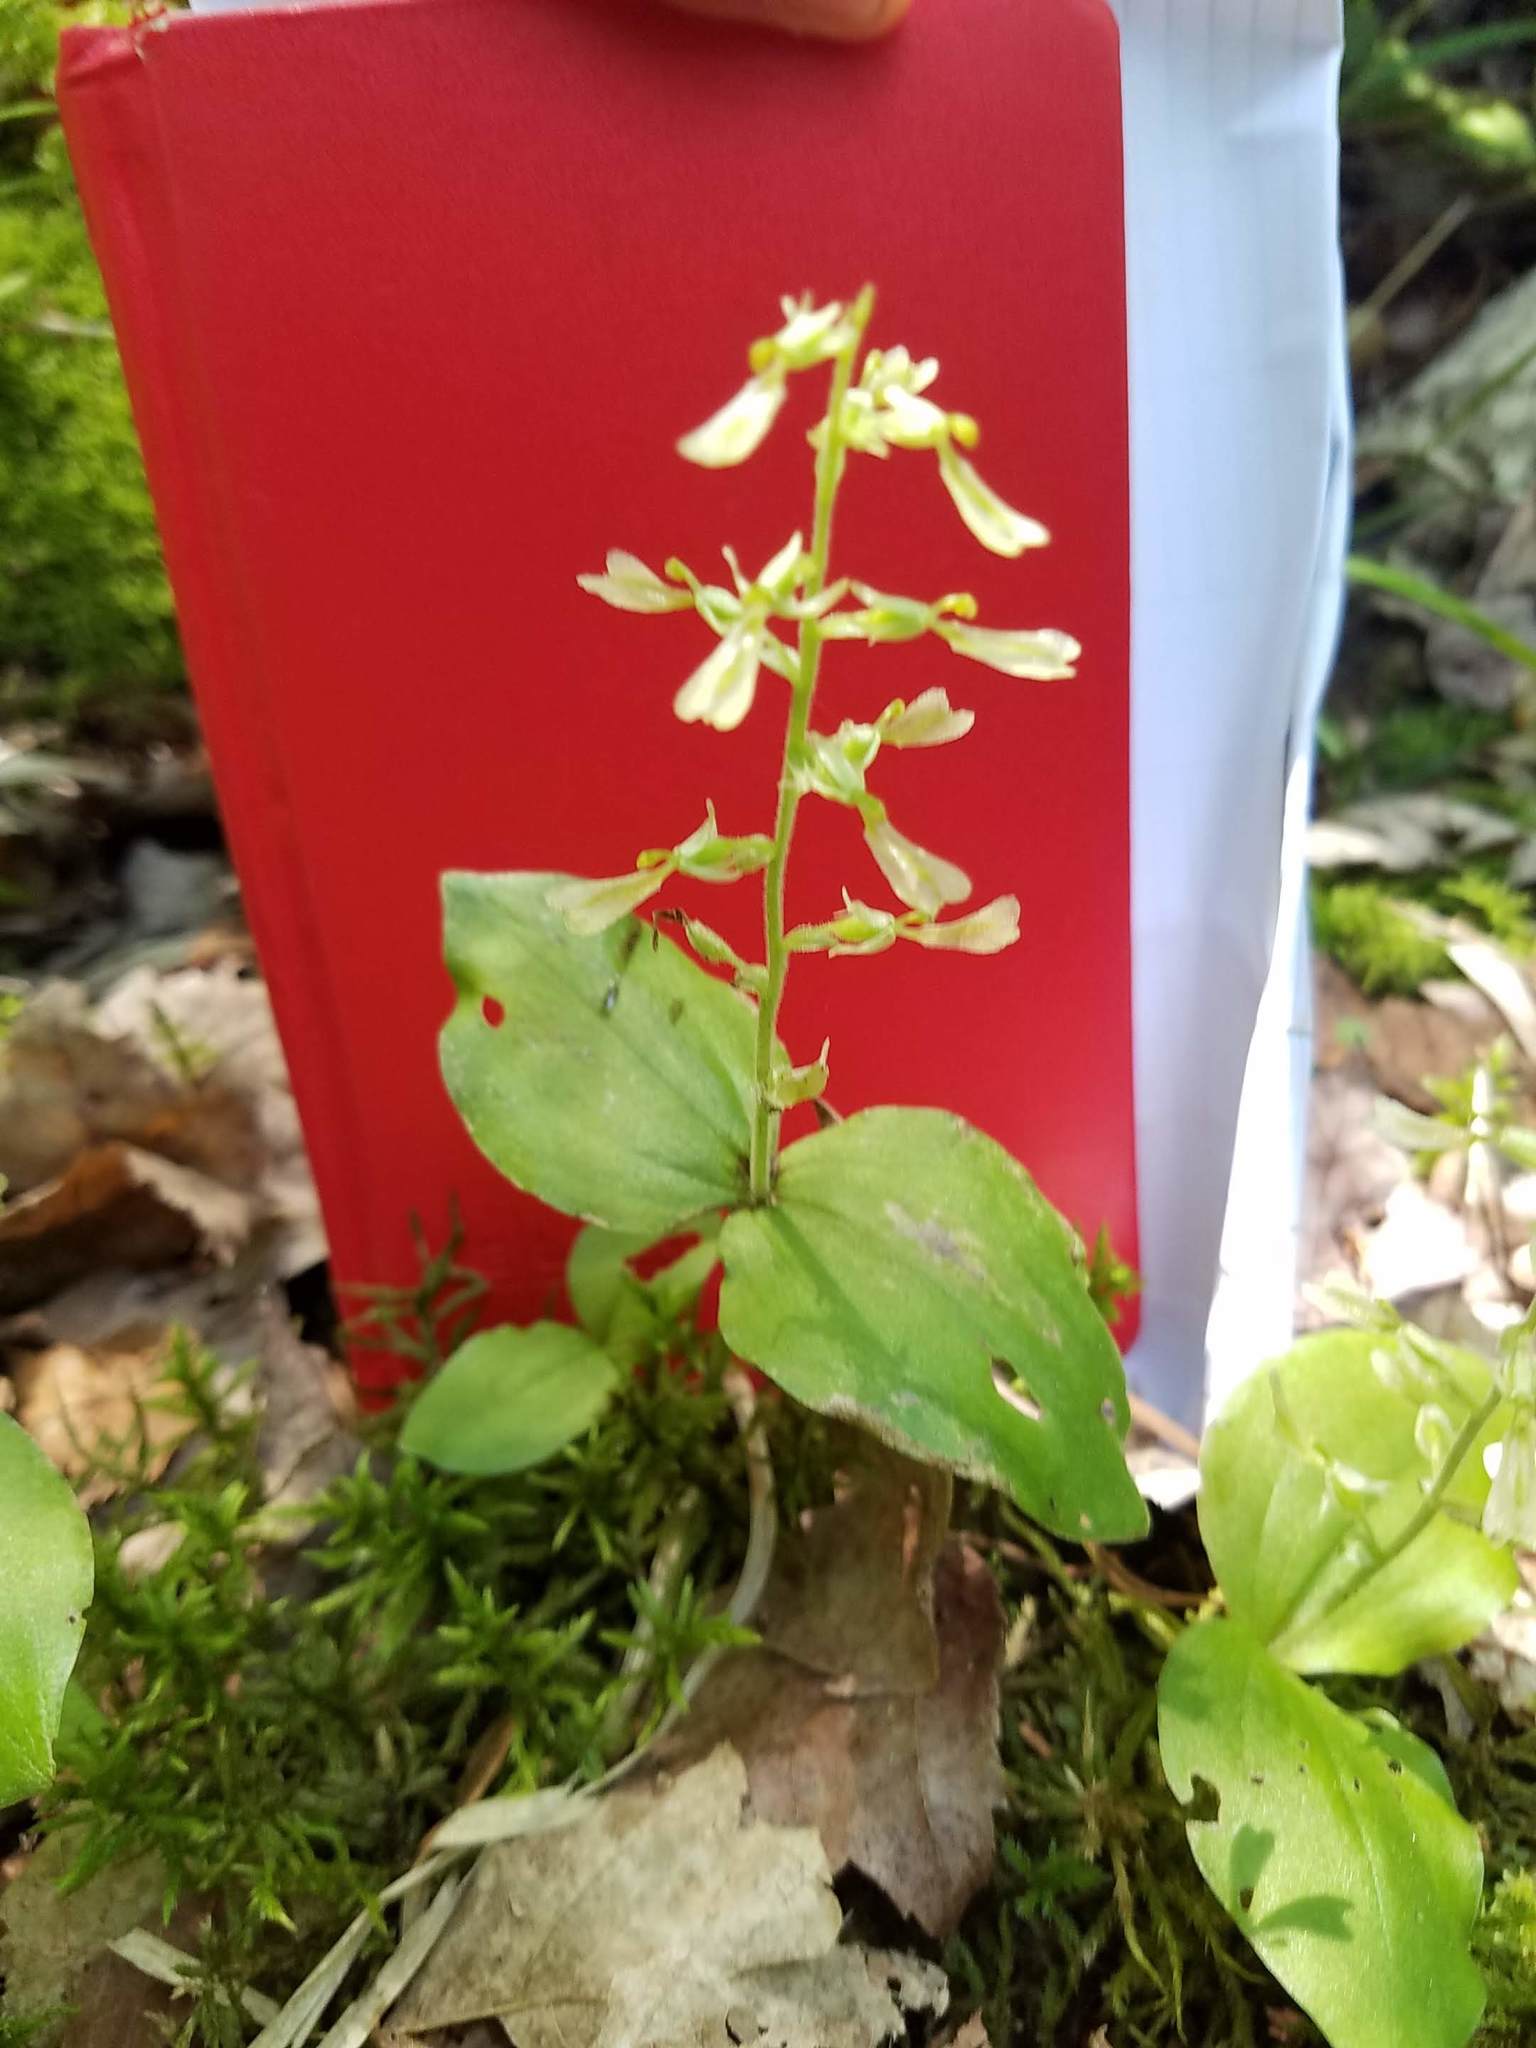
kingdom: Plantae
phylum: Tracheophyta
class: Liliopsida
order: Asparagales
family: Orchidaceae
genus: Neottia
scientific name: Neottia convallarioides
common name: Broadleaf twayblade
